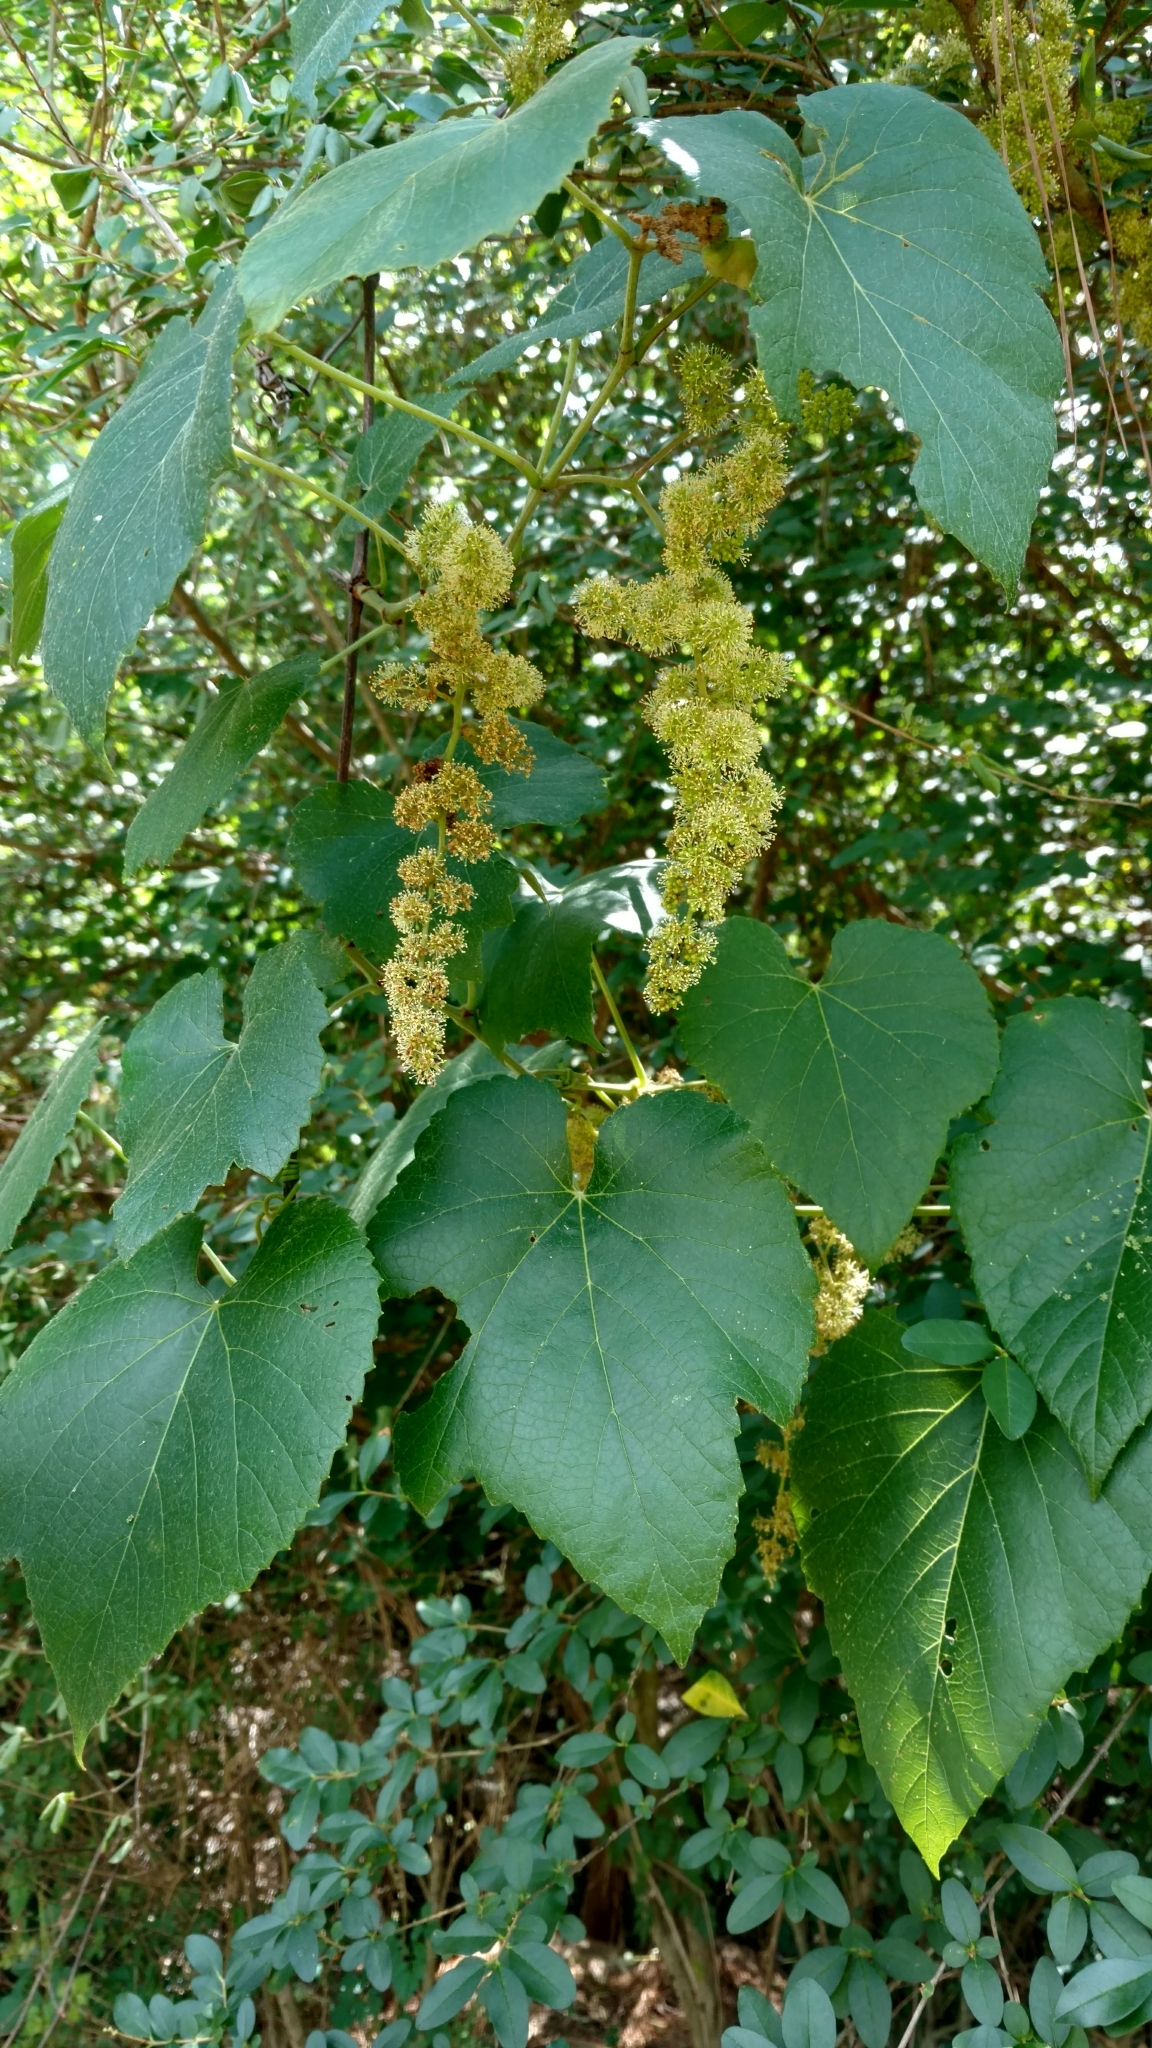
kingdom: Plantae
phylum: Tracheophyta
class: Magnoliopsida
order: Vitales
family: Vitaceae
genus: Vitis
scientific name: Vitis cinerea
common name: Ashy grape
